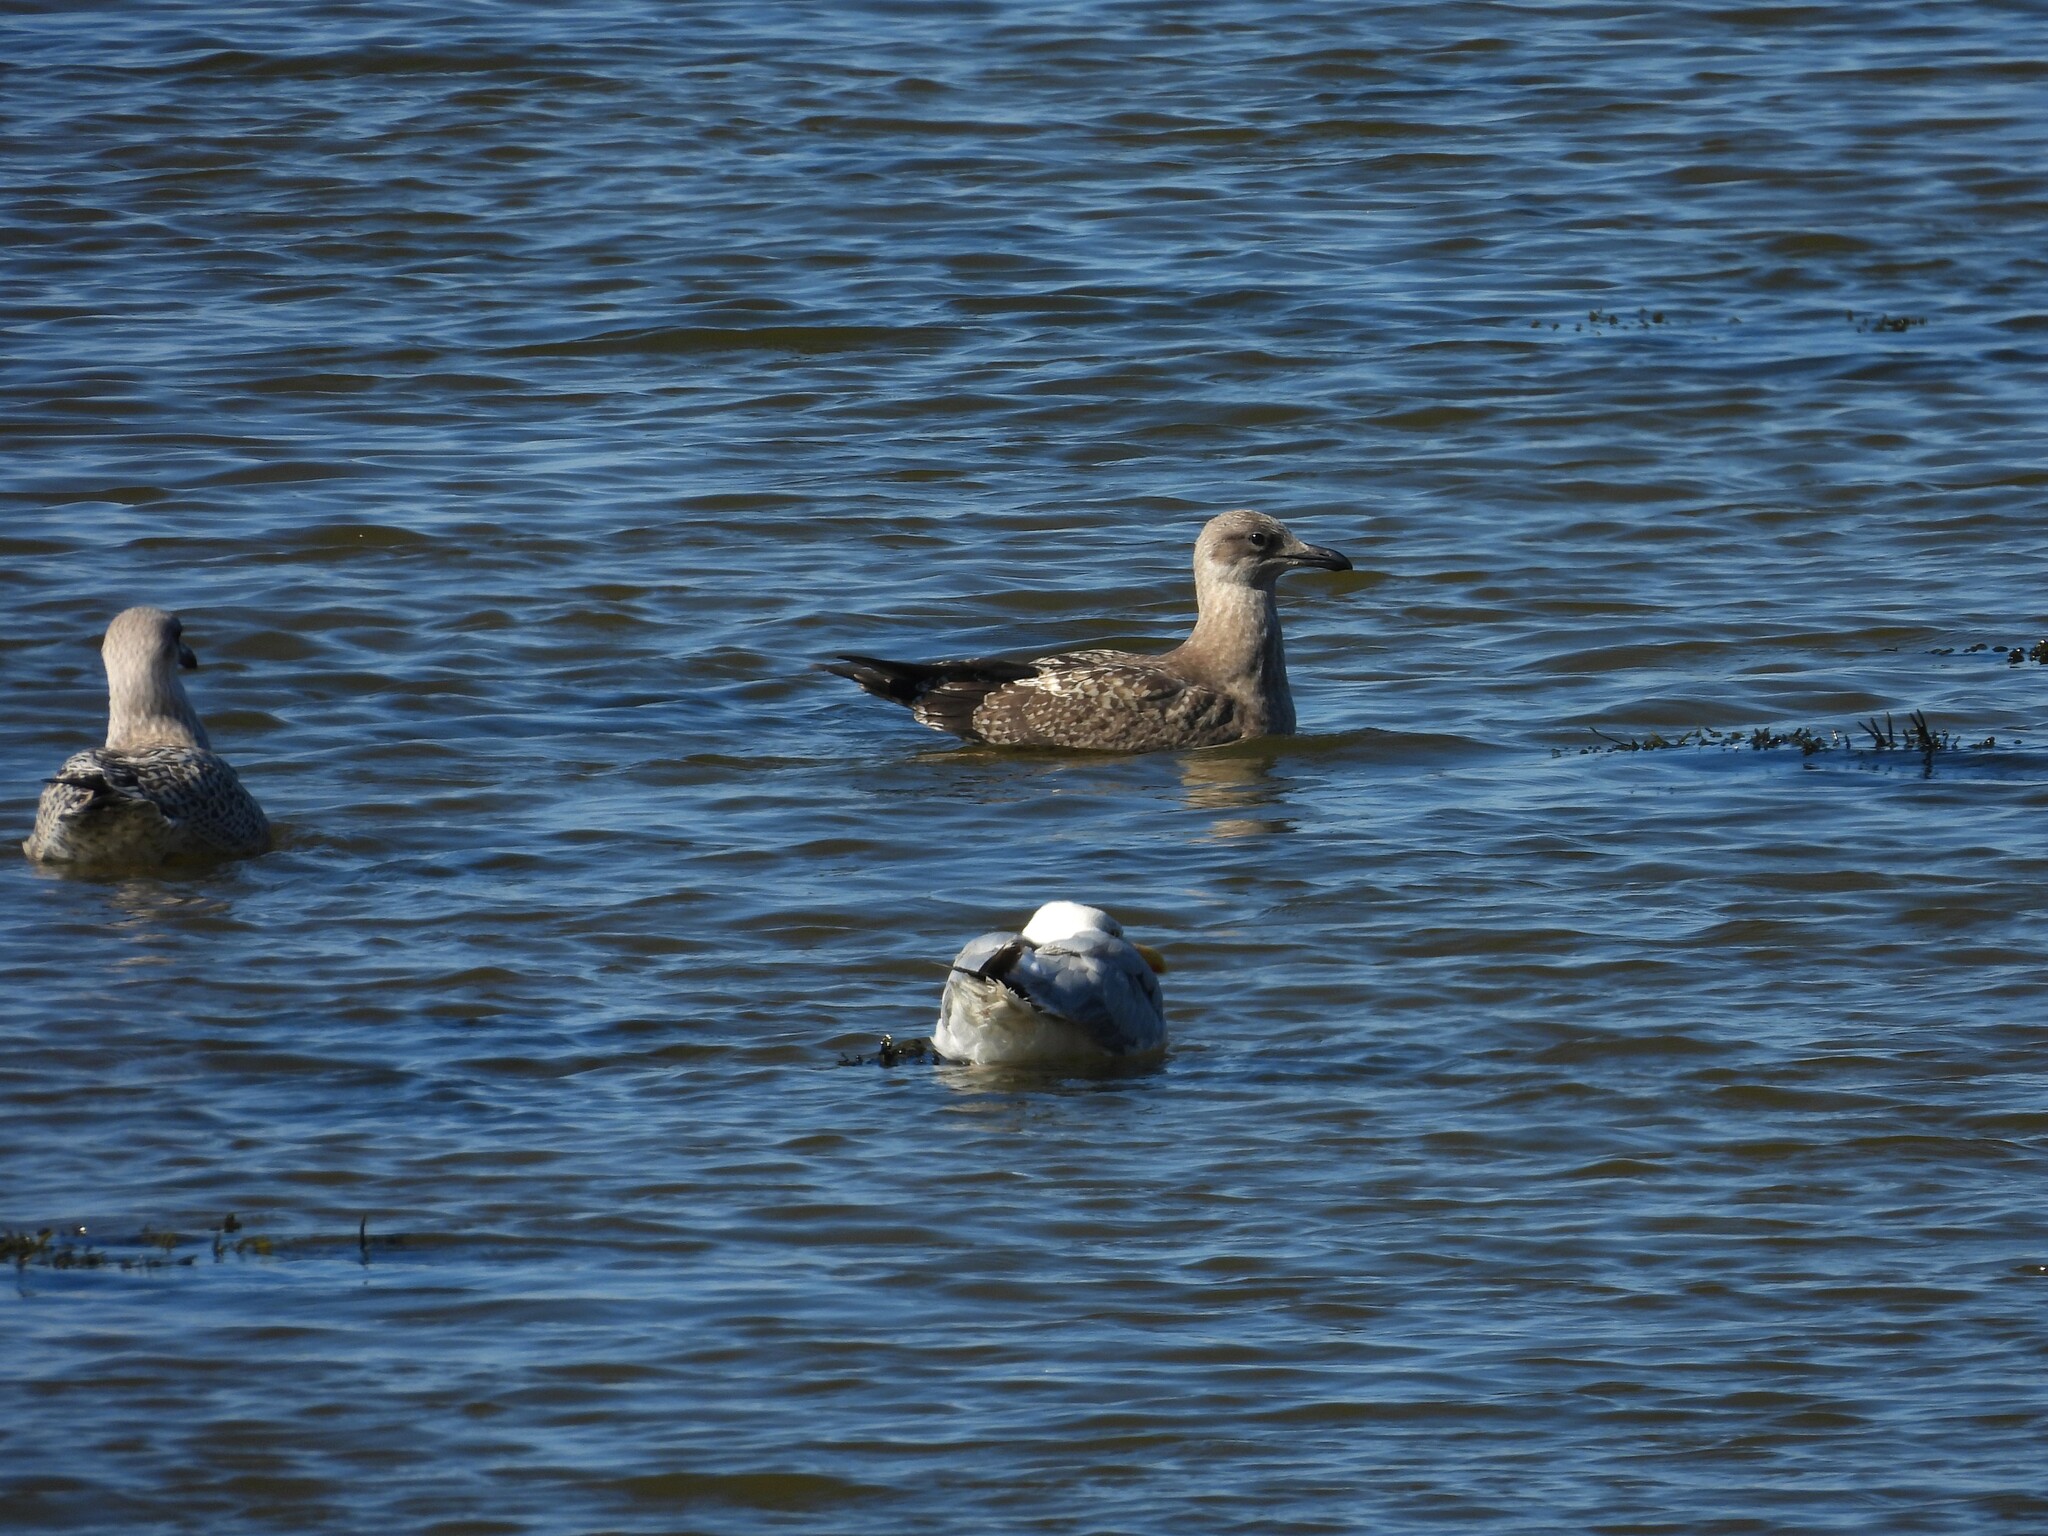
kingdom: Animalia
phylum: Chordata
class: Aves
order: Charadriiformes
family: Laridae
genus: Larus
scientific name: Larus argentatus
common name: Herring gull
